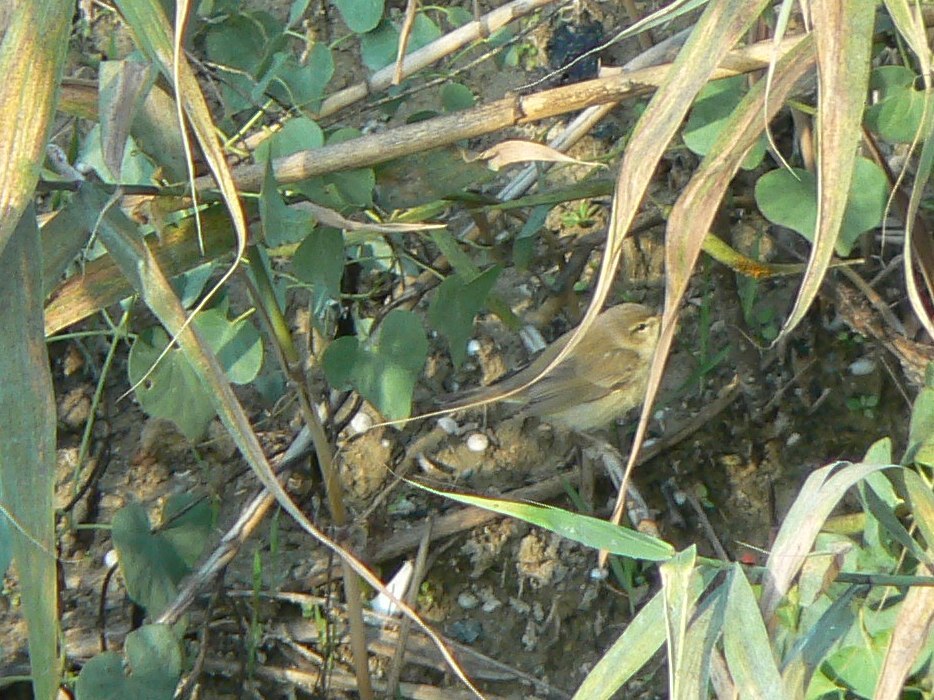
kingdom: Animalia
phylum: Chordata
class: Aves
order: Passeriformes
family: Phylloscopidae
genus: Phylloscopus
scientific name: Phylloscopus trochilus
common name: Willow warbler
